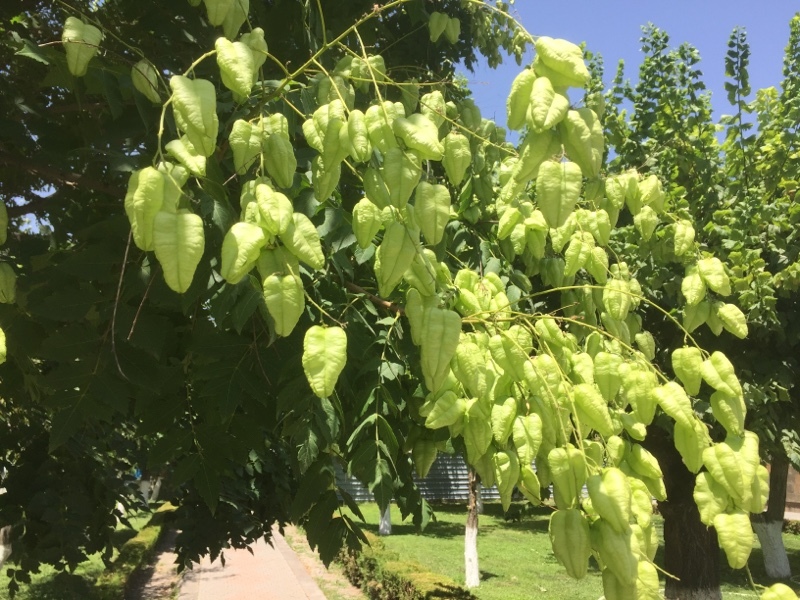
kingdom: Plantae
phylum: Tracheophyta
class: Magnoliopsida
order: Sapindales
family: Sapindaceae
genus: Koelreuteria
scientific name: Koelreuteria paniculata
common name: Pride-of-india
